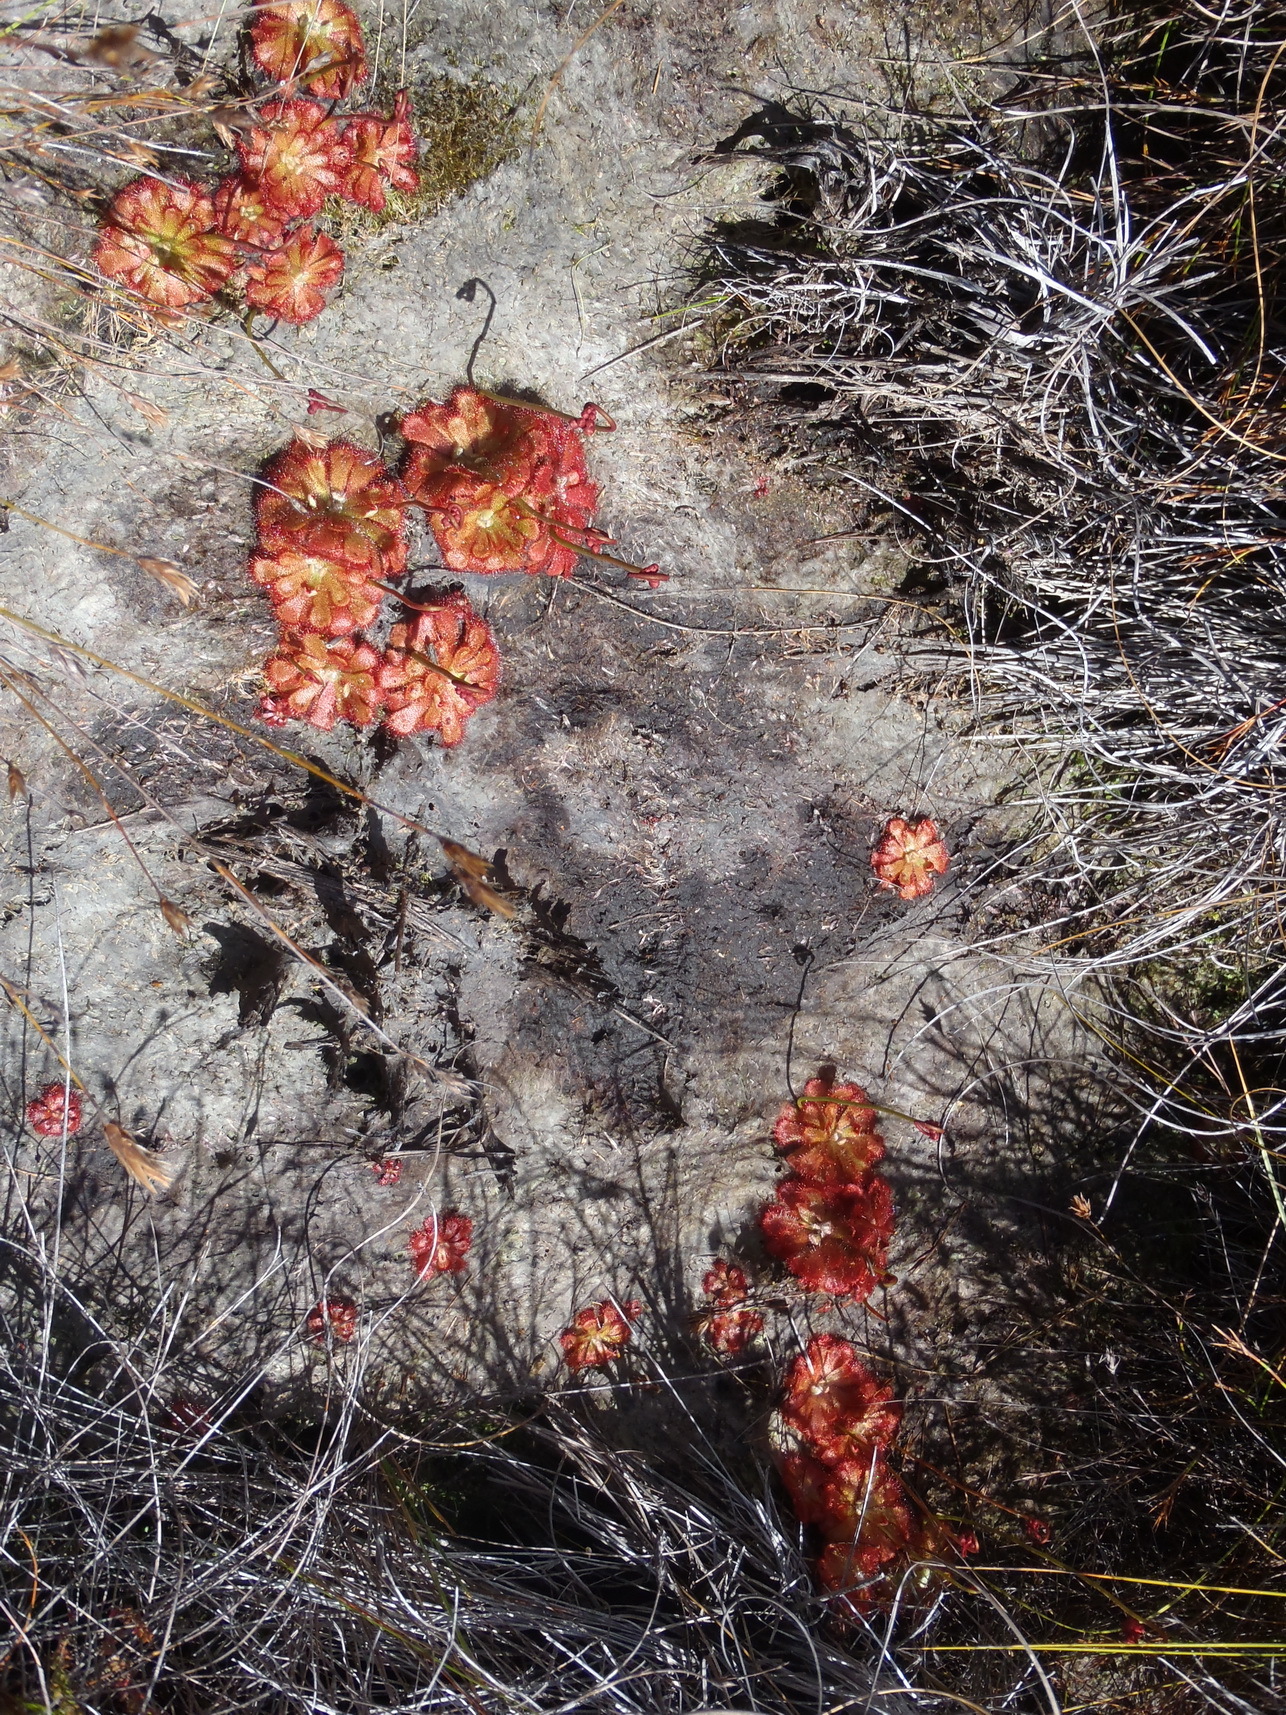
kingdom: Plantae
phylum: Tracheophyta
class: Magnoliopsida
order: Caryophyllales
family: Droseraceae
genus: Drosera
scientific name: Drosera aliciae
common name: Alice sundew
